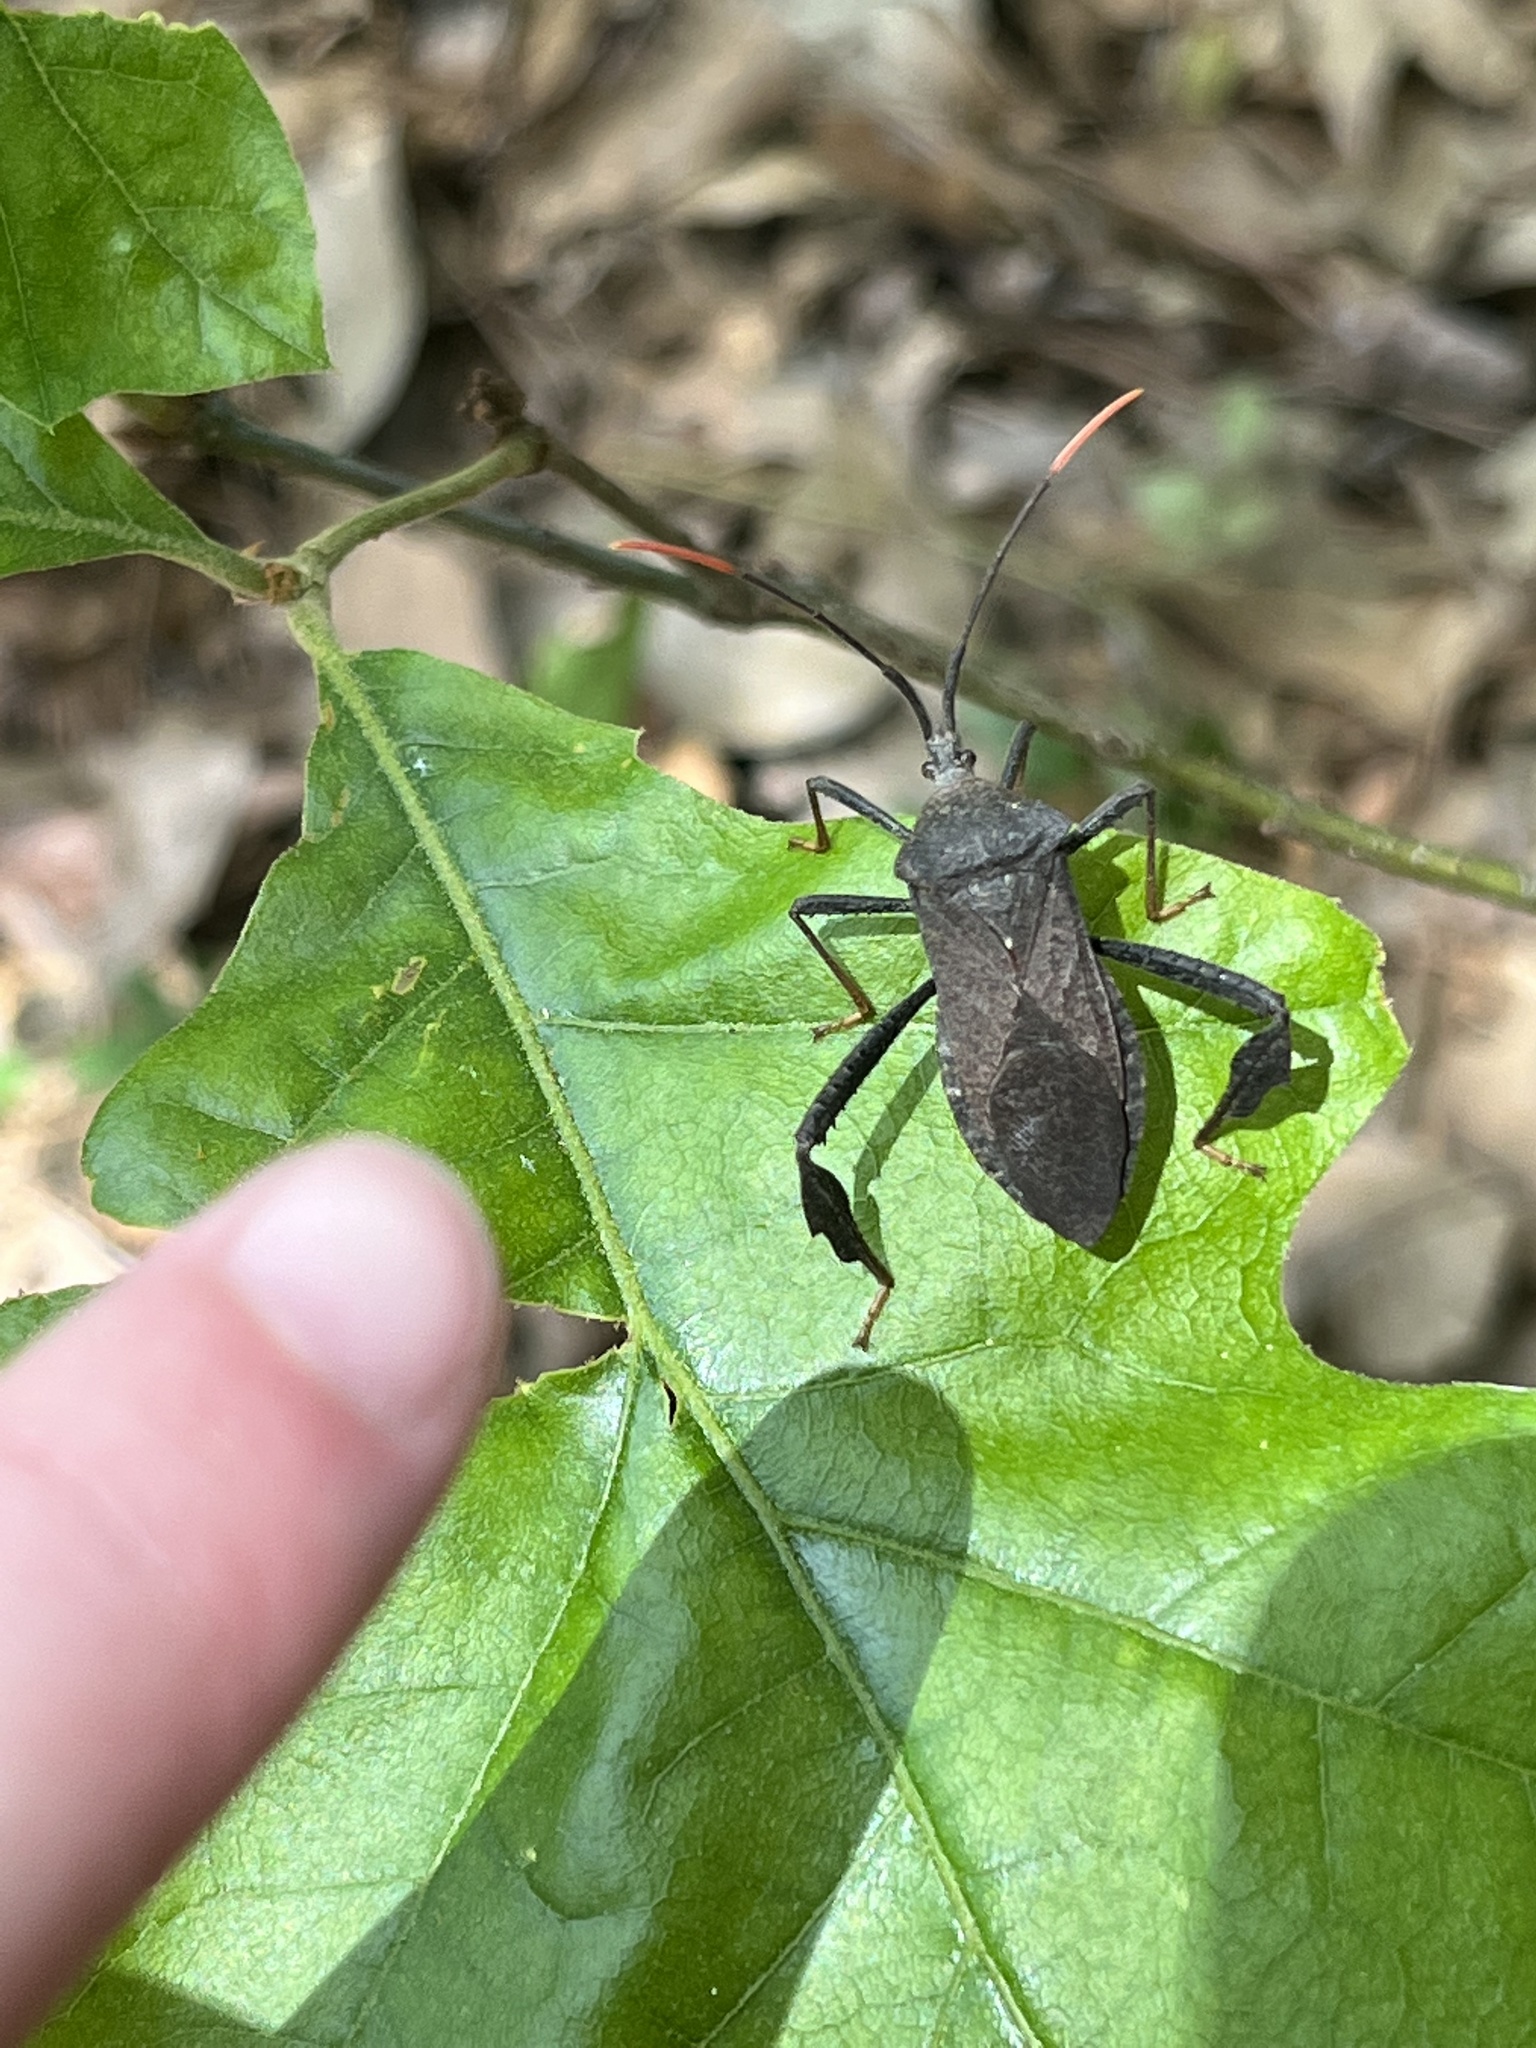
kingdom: Animalia
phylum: Arthropoda
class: Insecta
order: Hemiptera
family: Coreidae
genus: Acanthocephala
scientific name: Acanthocephala terminalis
